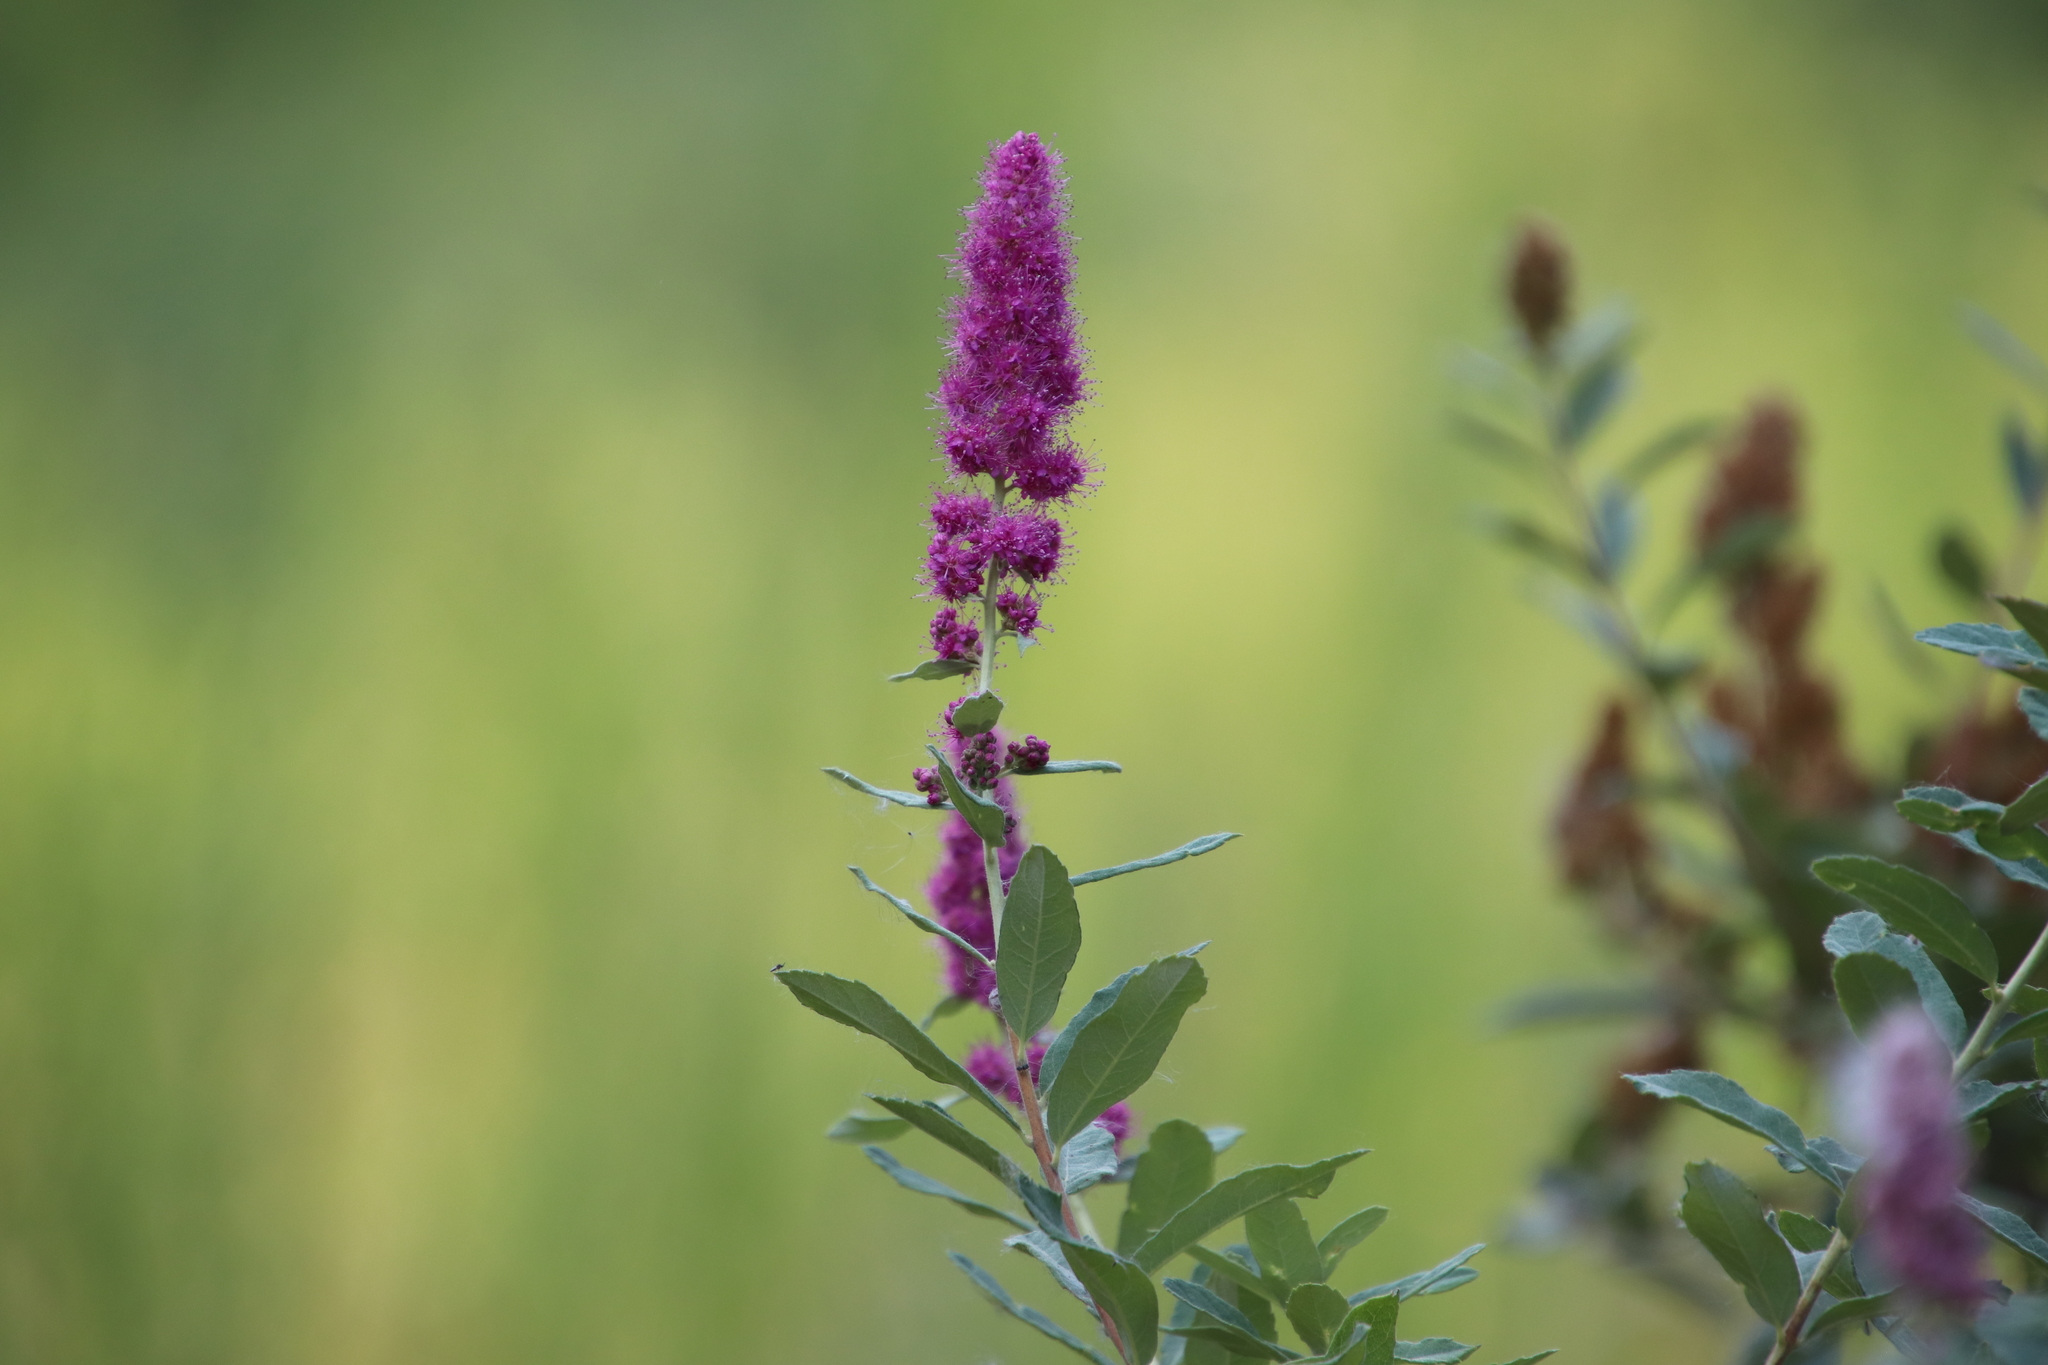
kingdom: Plantae
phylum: Tracheophyta
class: Magnoliopsida
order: Rosales
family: Rosaceae
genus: Spiraea
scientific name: Spiraea douglasii
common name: Steeplebush
